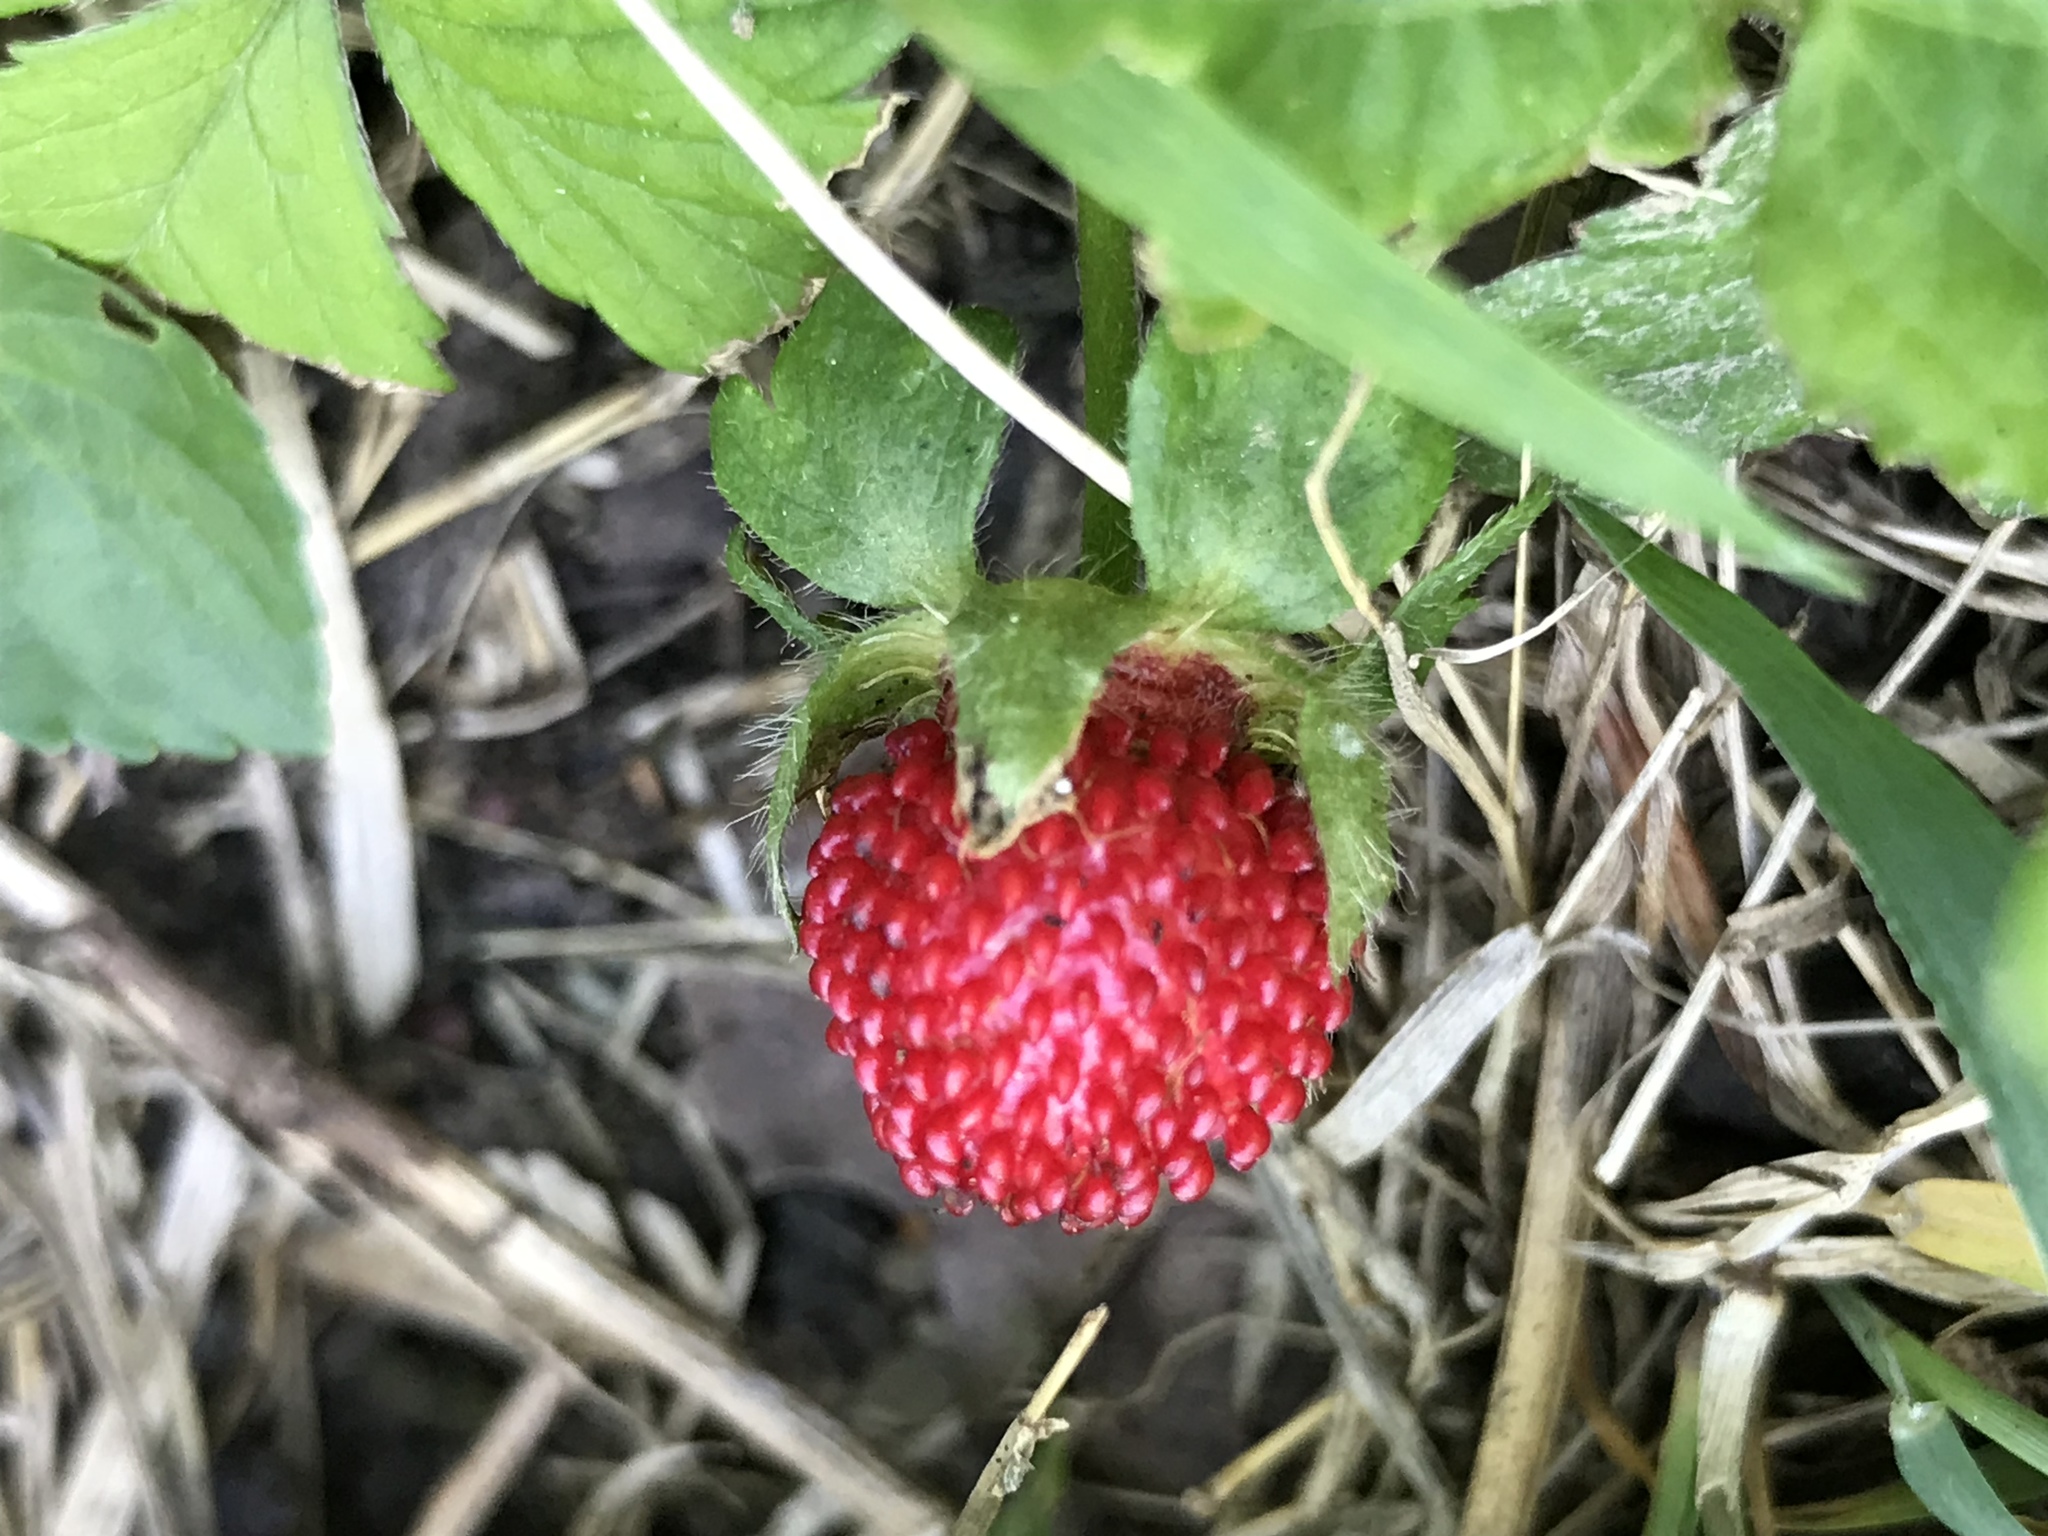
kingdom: Plantae
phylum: Tracheophyta
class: Magnoliopsida
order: Rosales
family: Rosaceae
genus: Potentilla
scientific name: Potentilla indica
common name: Yellow-flowered strawberry
